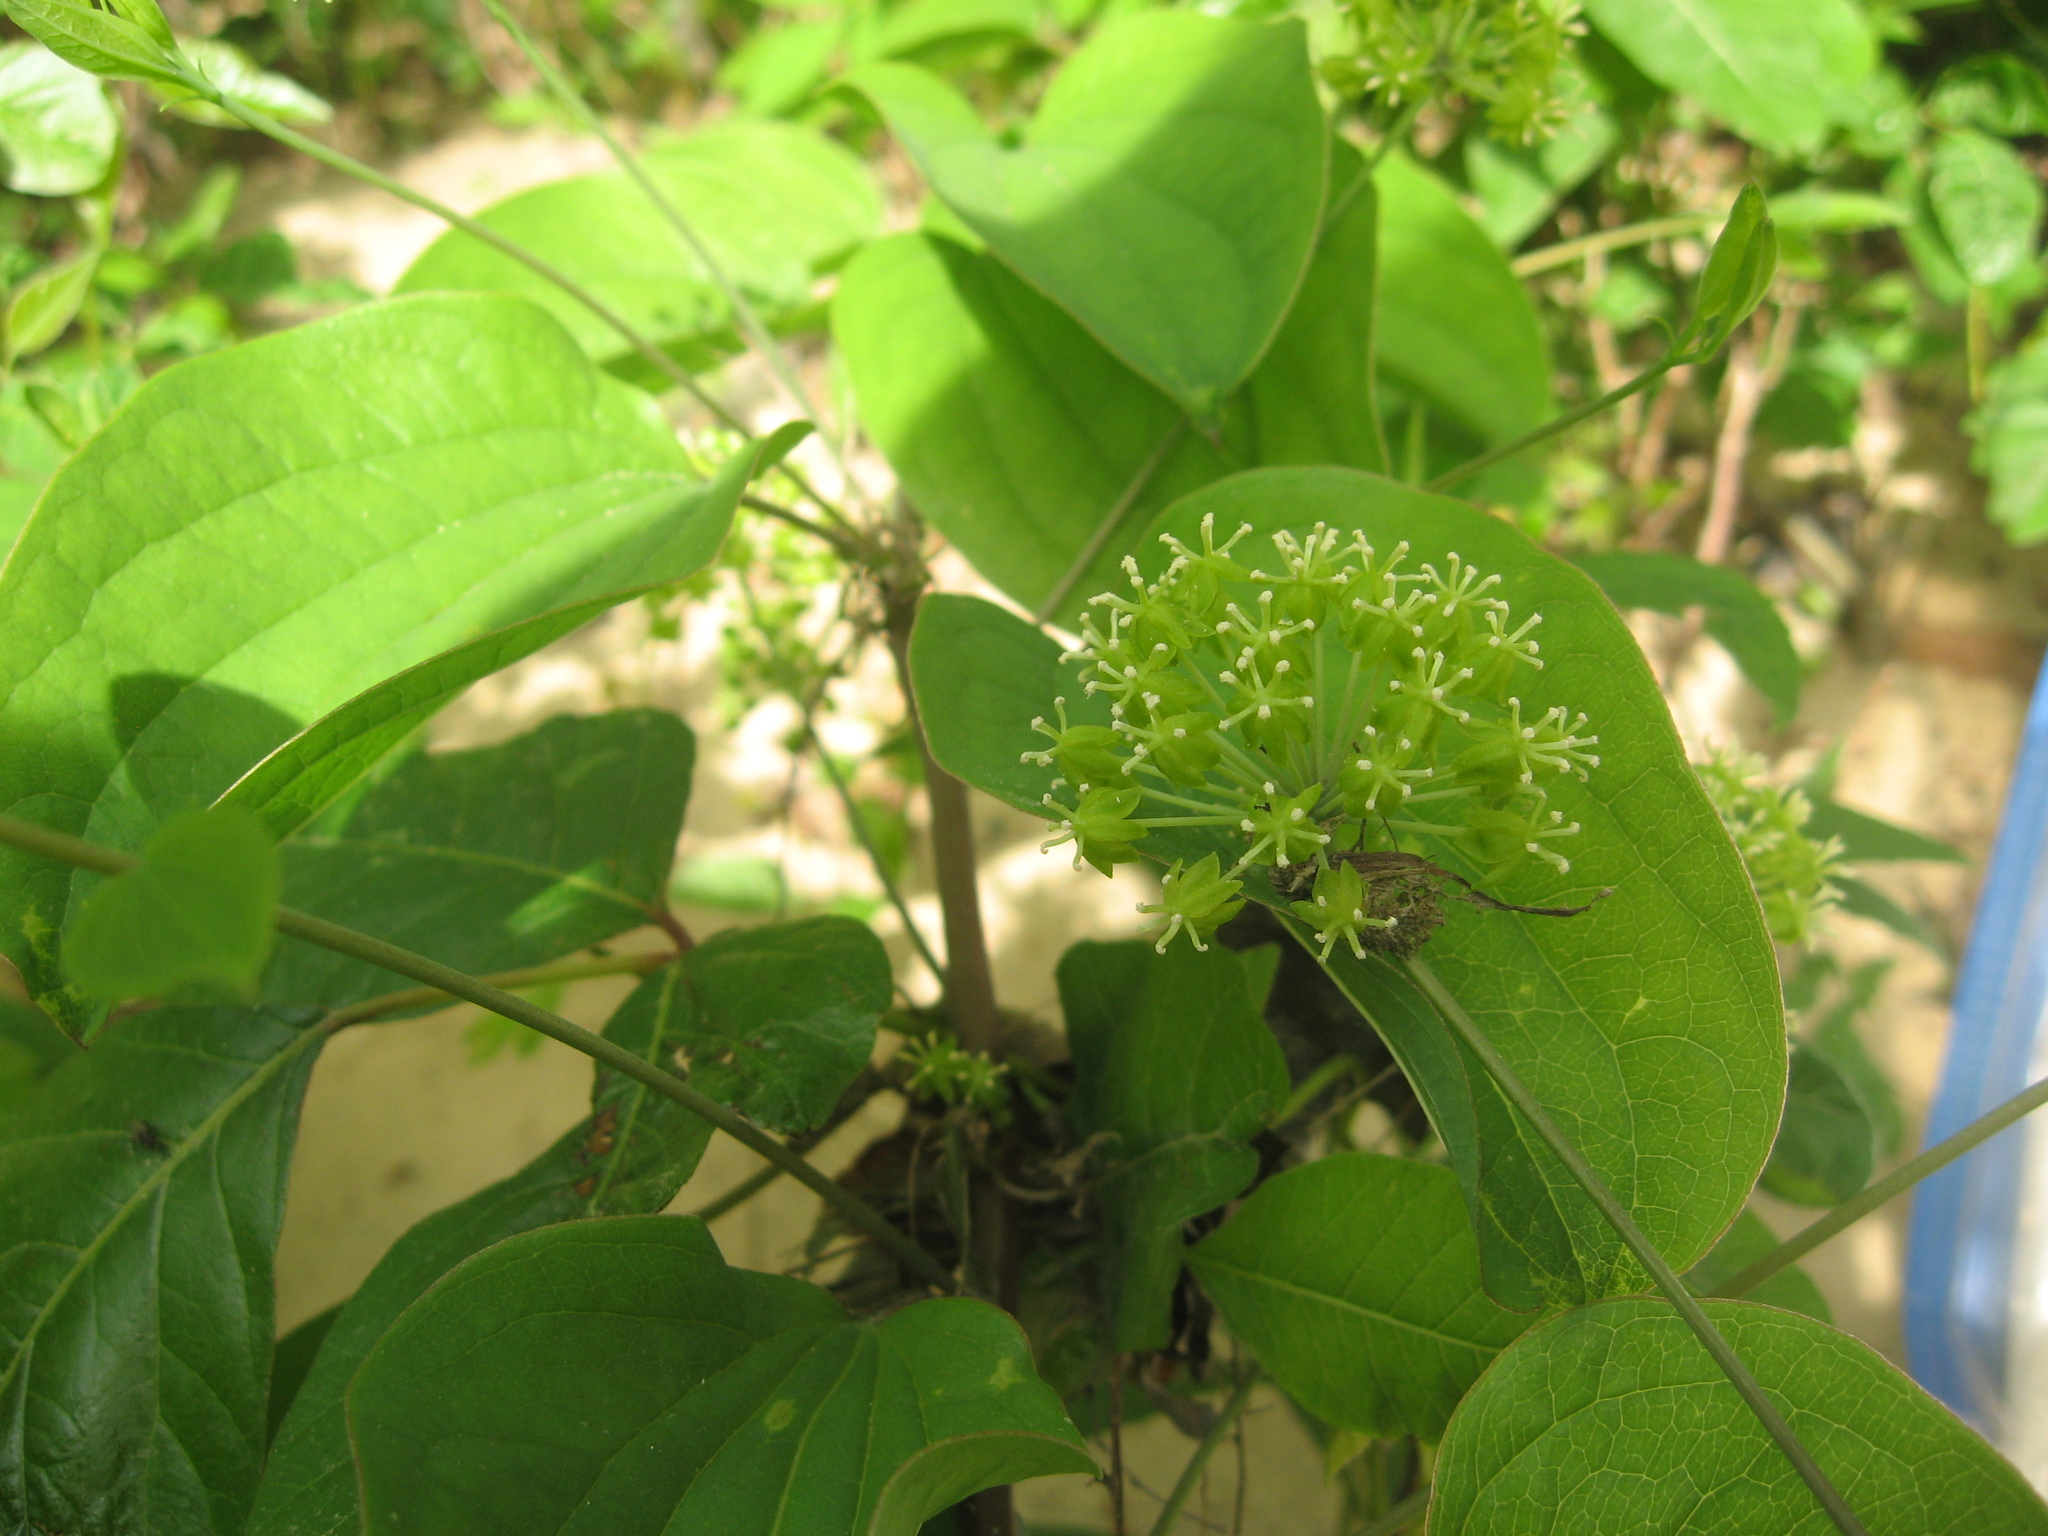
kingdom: Plantae
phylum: Tracheophyta
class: Liliopsida
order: Liliales
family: Smilacaceae
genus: Smilax
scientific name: Smilax herbacea
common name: Jacob's-ladder
